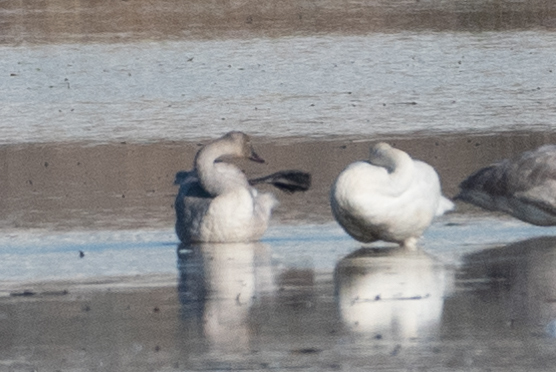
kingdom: Animalia
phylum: Chordata
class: Aves
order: Anseriformes
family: Anatidae
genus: Cygnus
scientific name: Cygnus columbianus
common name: Tundra swan
